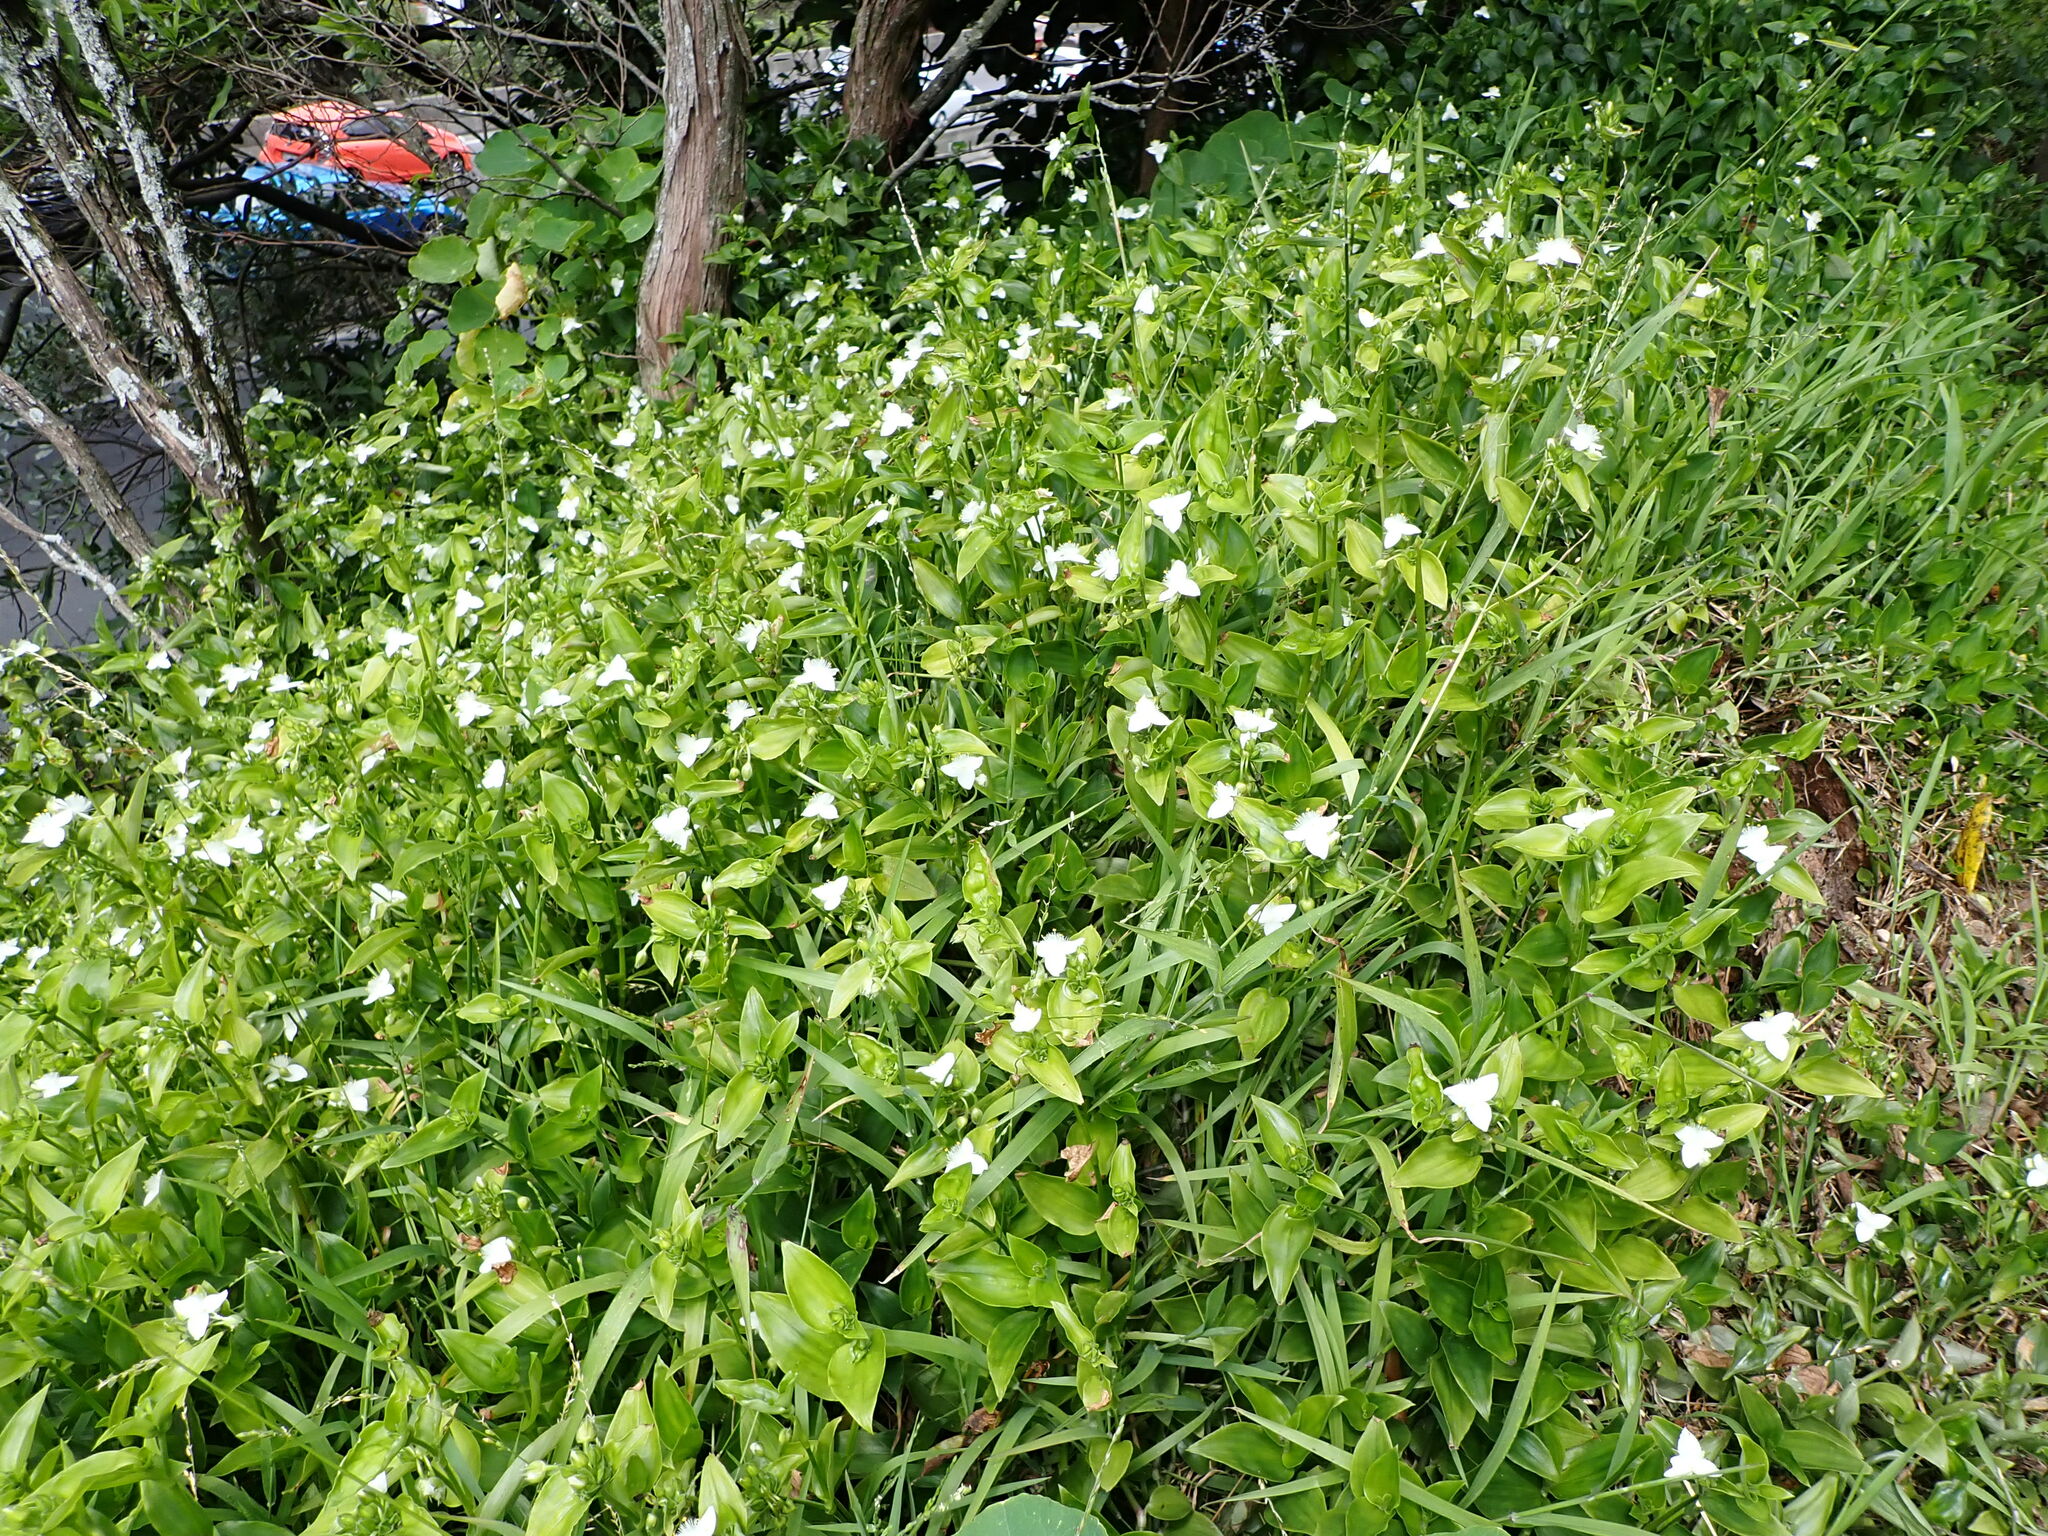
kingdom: Plantae
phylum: Tracheophyta
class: Liliopsida
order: Commelinales
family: Commelinaceae
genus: Tradescantia
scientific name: Tradescantia fluminensis
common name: Wandering-jew
